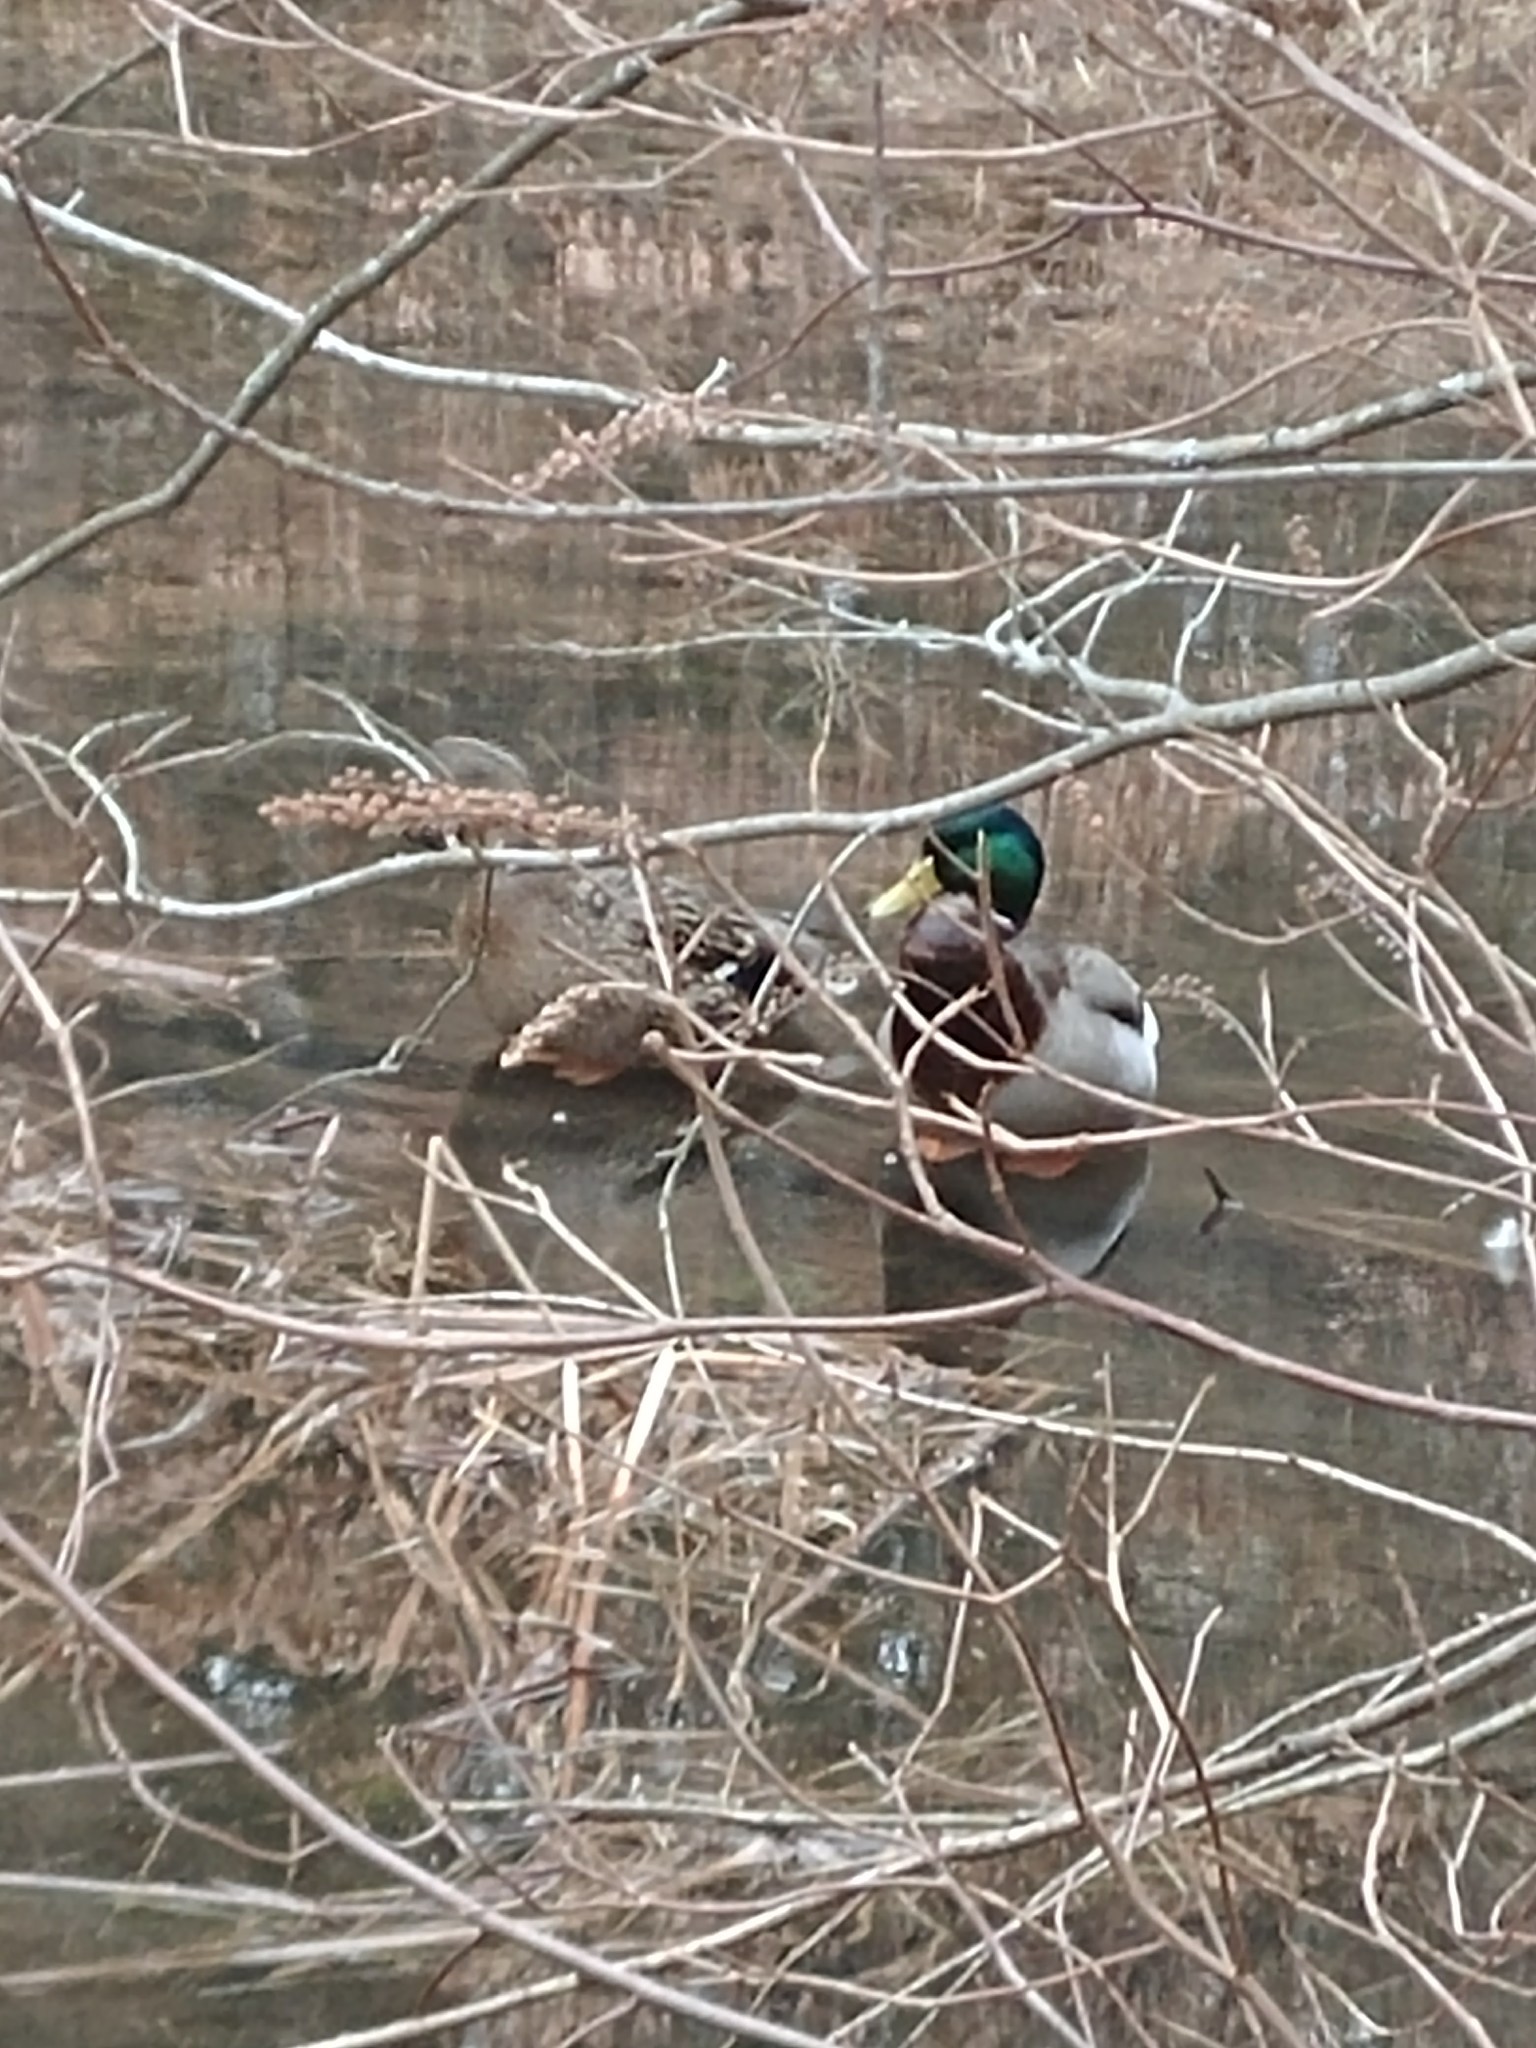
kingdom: Animalia
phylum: Chordata
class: Aves
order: Anseriformes
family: Anatidae
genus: Anas
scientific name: Anas platyrhynchos
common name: Mallard
